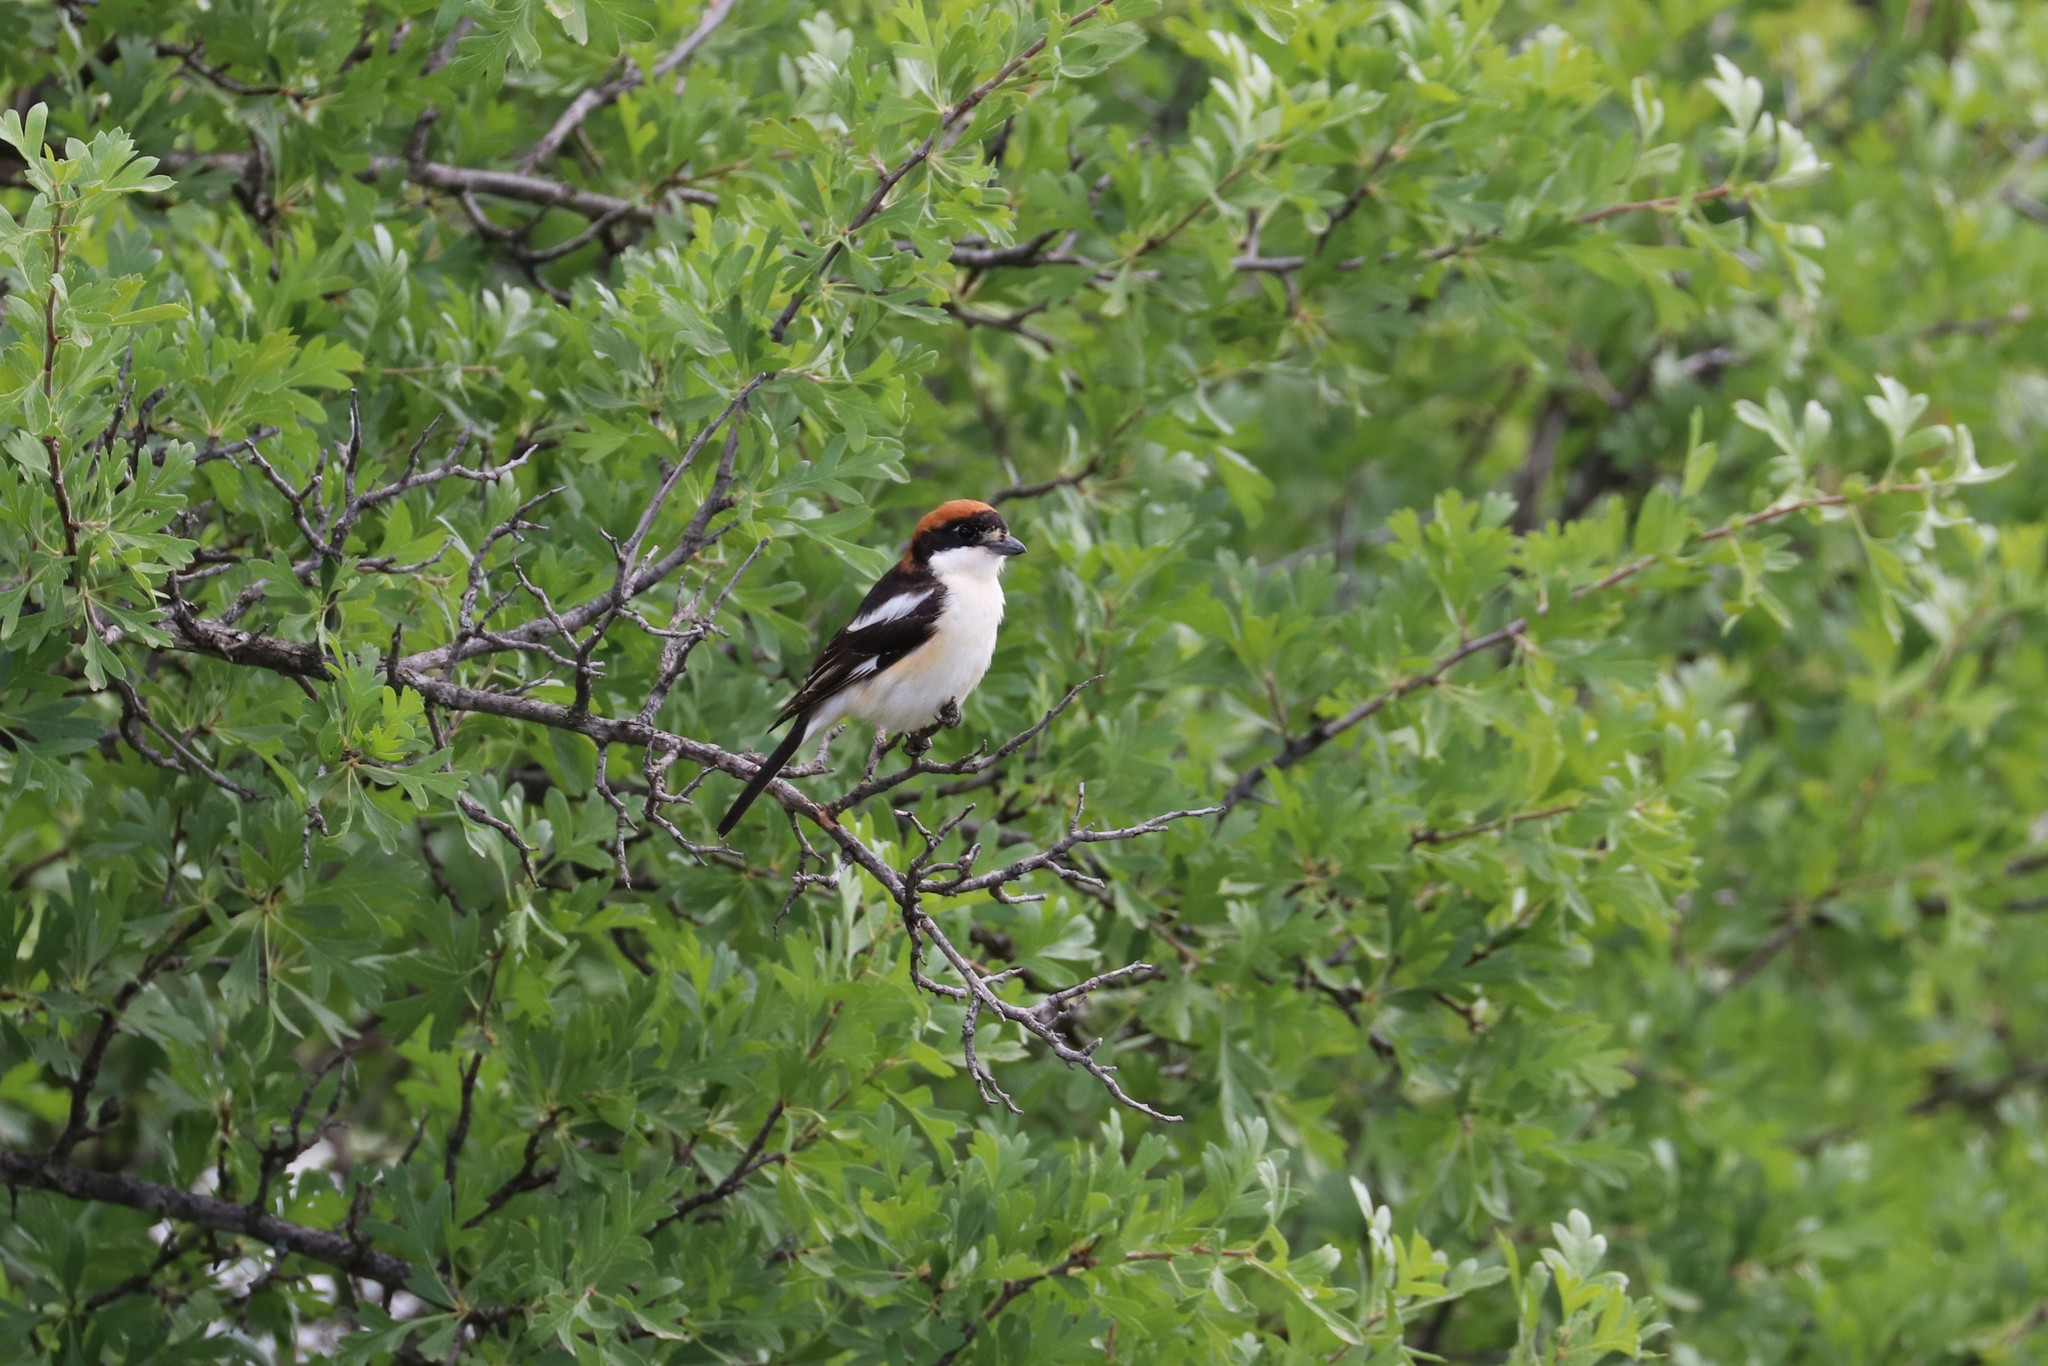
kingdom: Animalia
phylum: Chordata
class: Aves
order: Passeriformes
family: Laniidae
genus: Lanius
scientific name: Lanius senator
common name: Woodchat shrike
